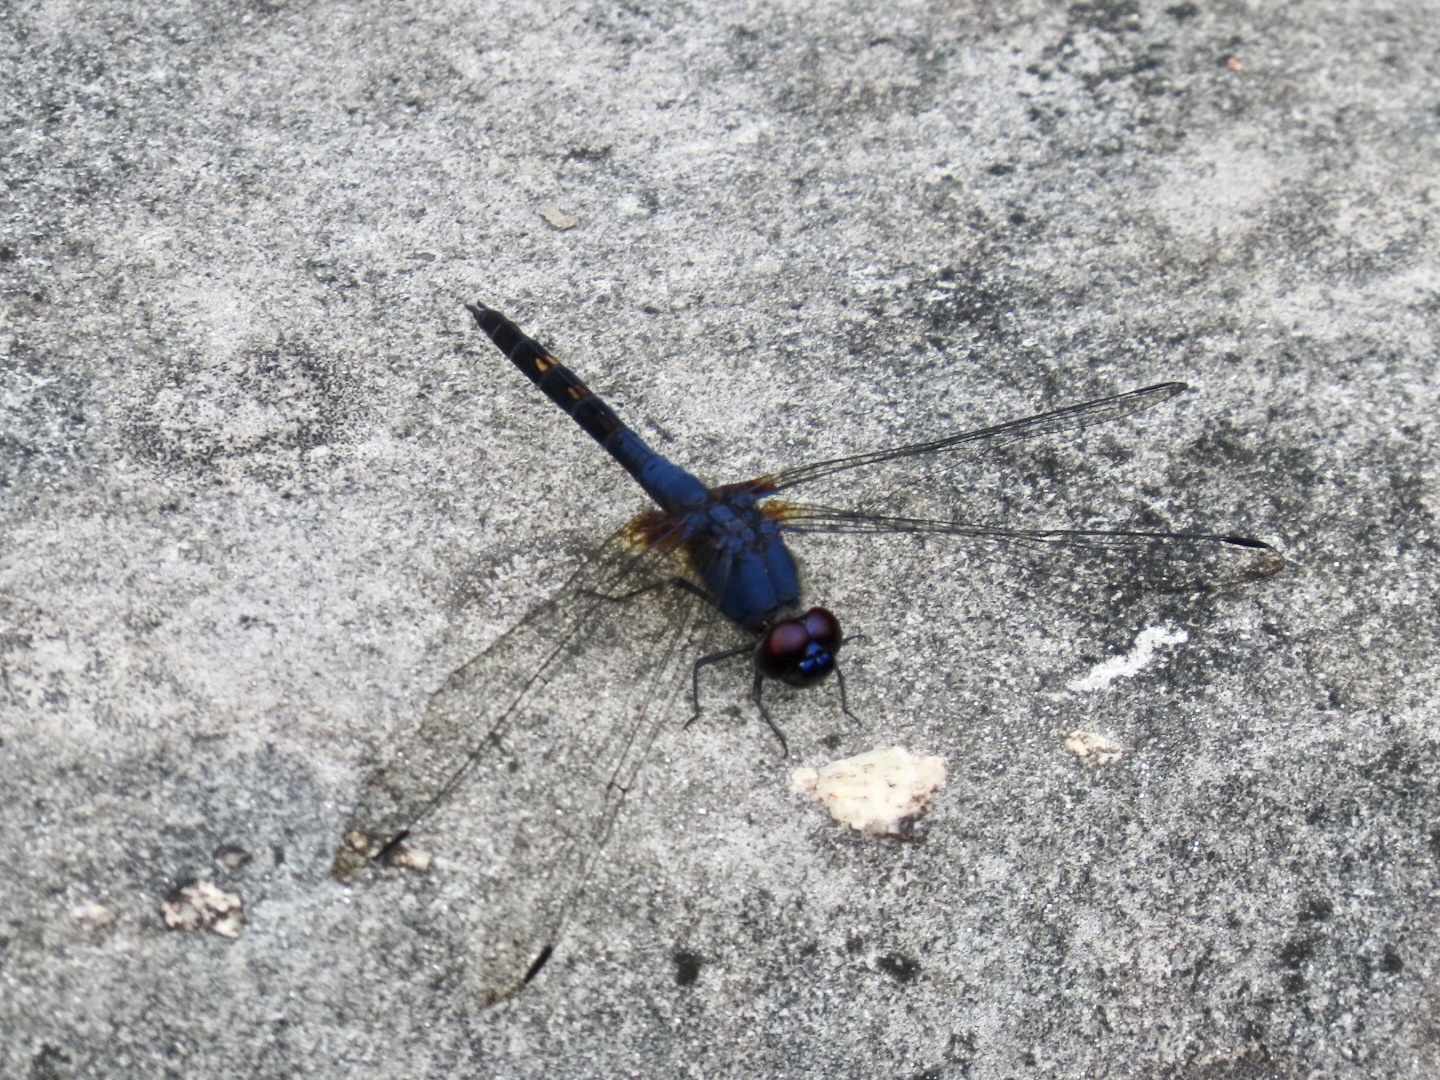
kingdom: Animalia
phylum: Arthropoda
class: Insecta
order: Odonata
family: Libellulidae
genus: Trithemis
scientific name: Trithemis festiva
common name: Indigo dropwing
